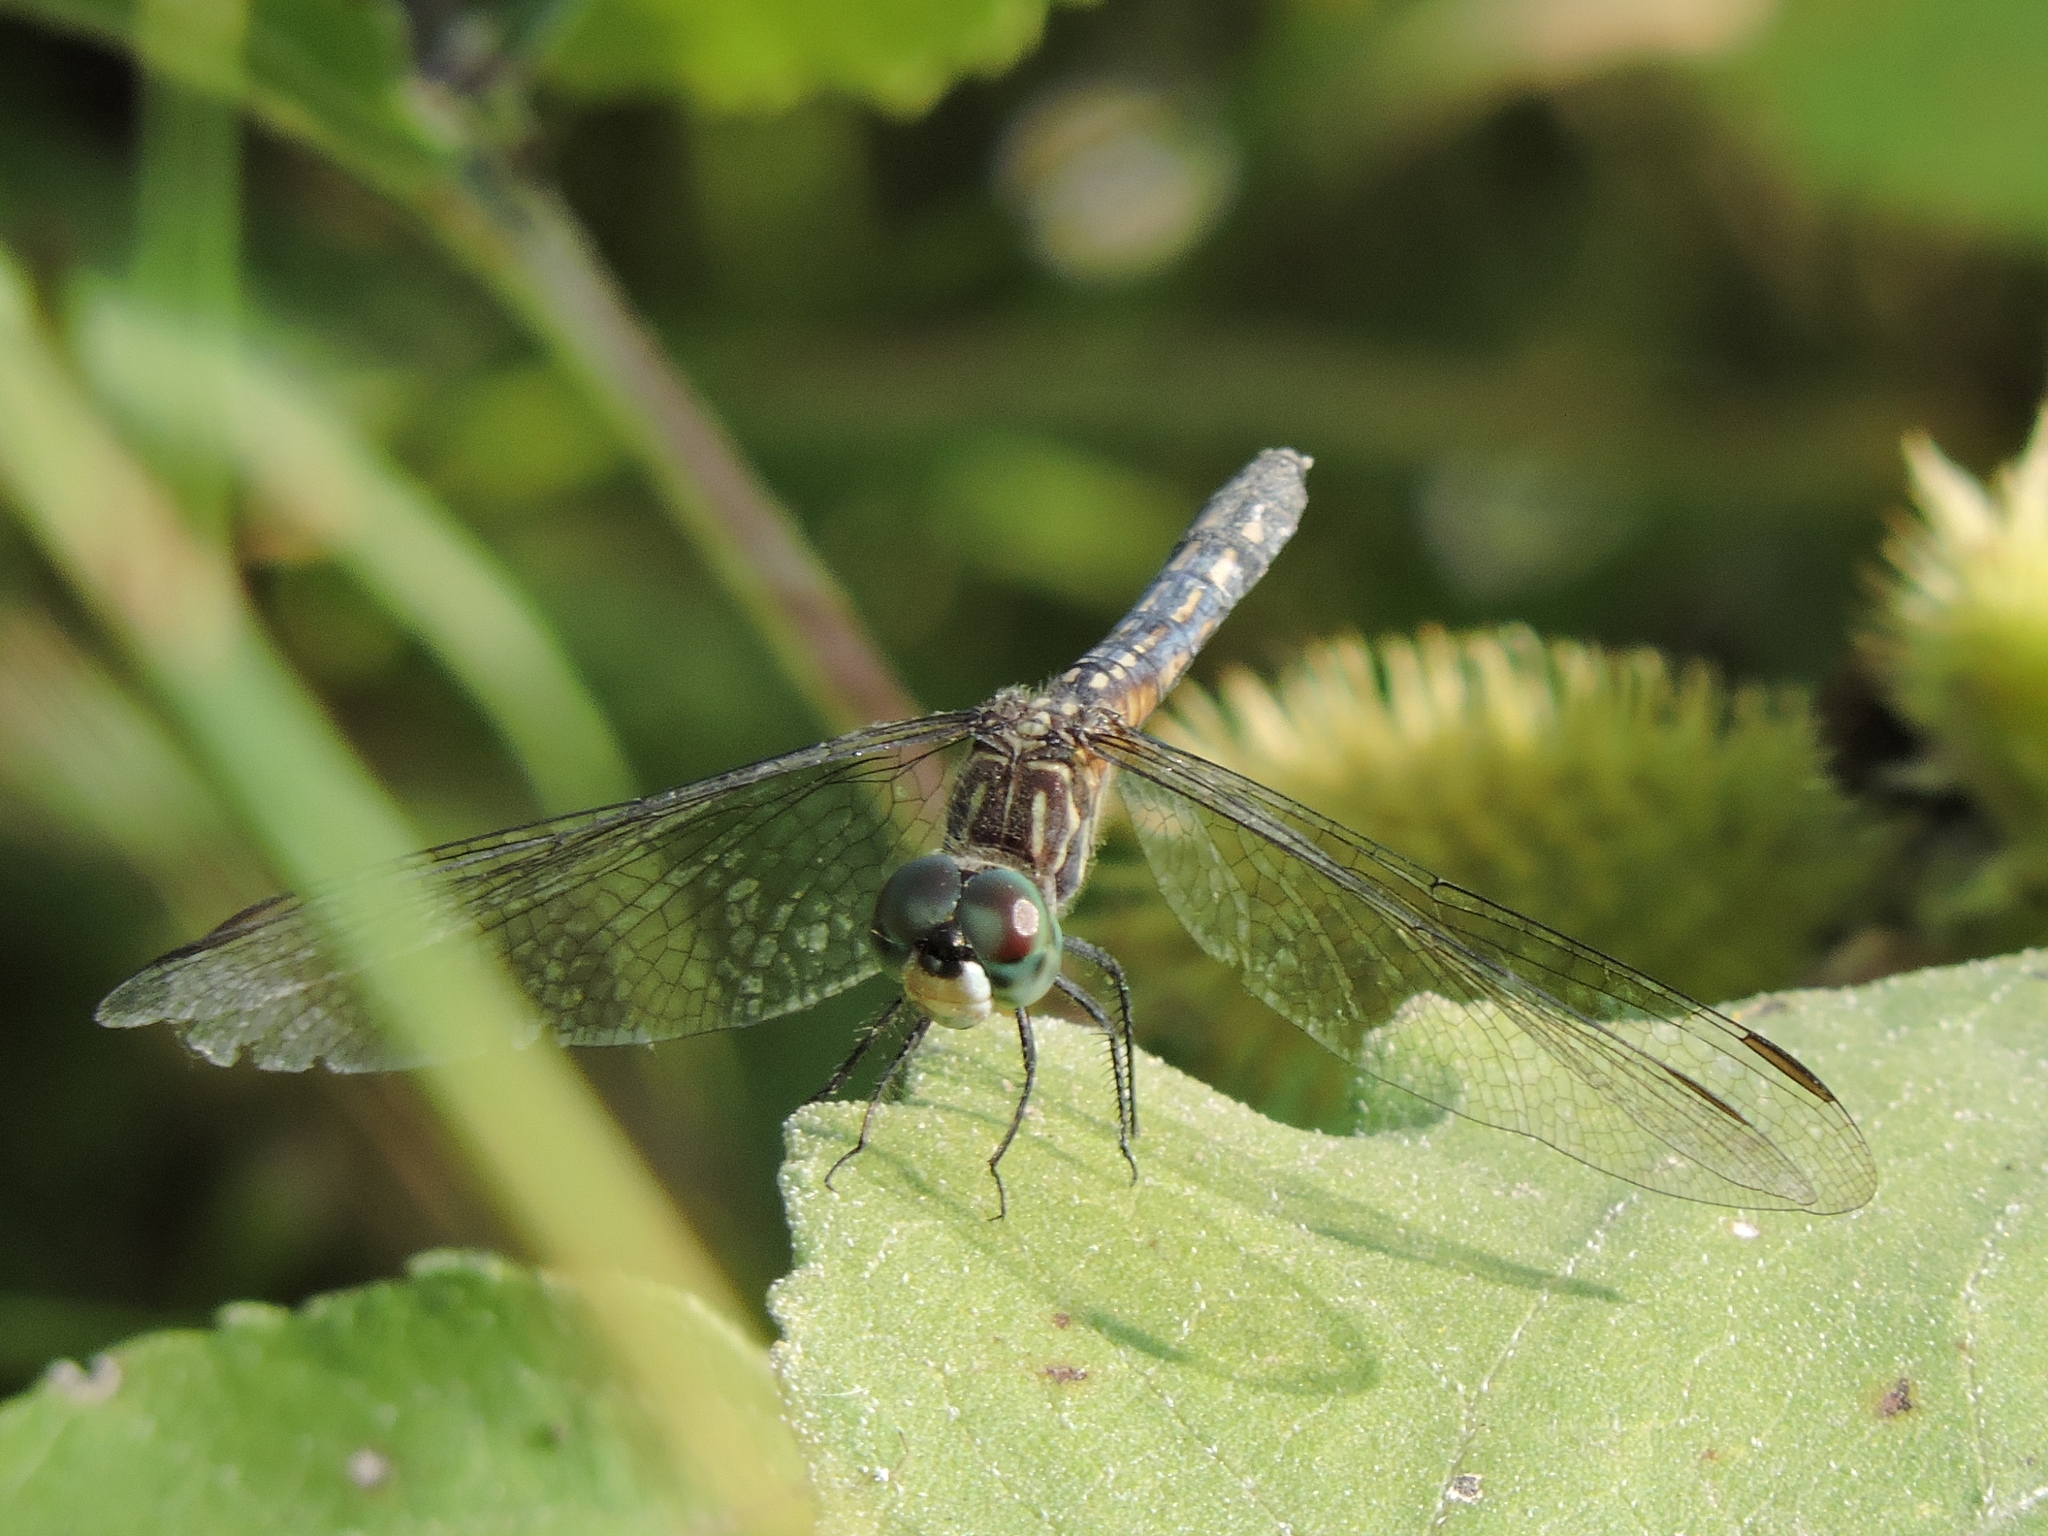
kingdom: Animalia
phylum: Arthropoda
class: Insecta
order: Odonata
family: Libellulidae
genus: Pachydiplax
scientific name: Pachydiplax longipennis
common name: Blue dasher
